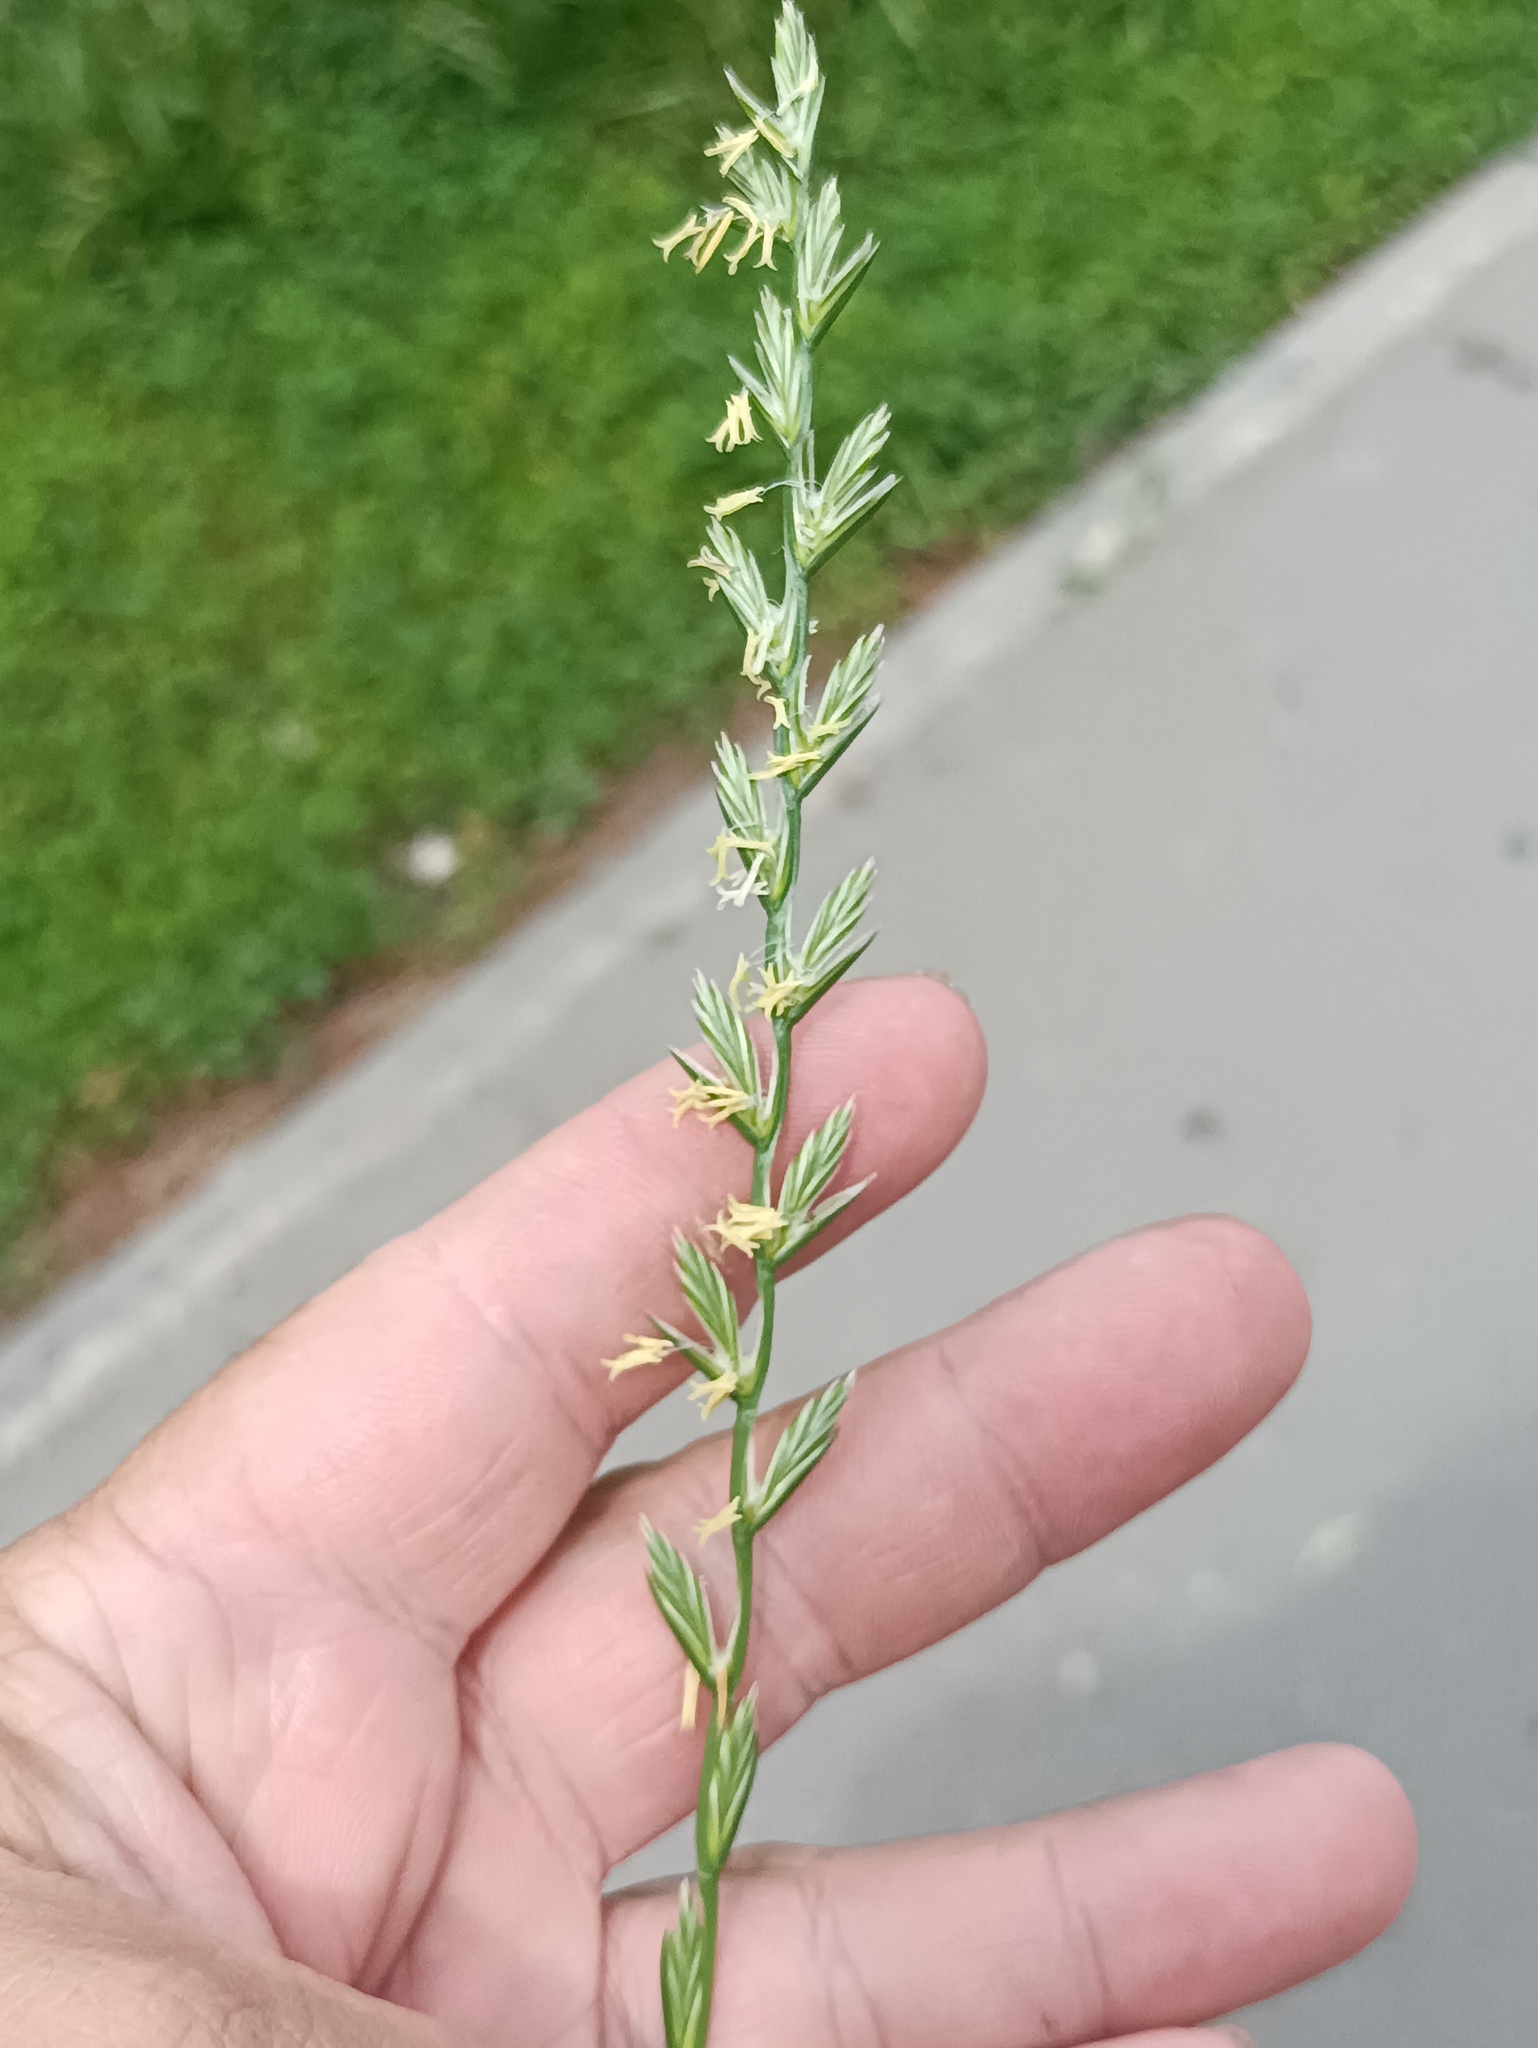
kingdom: Plantae
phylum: Tracheophyta
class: Liliopsida
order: Poales
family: Poaceae
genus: Lolium
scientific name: Lolium perenne
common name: Perennial ryegrass
